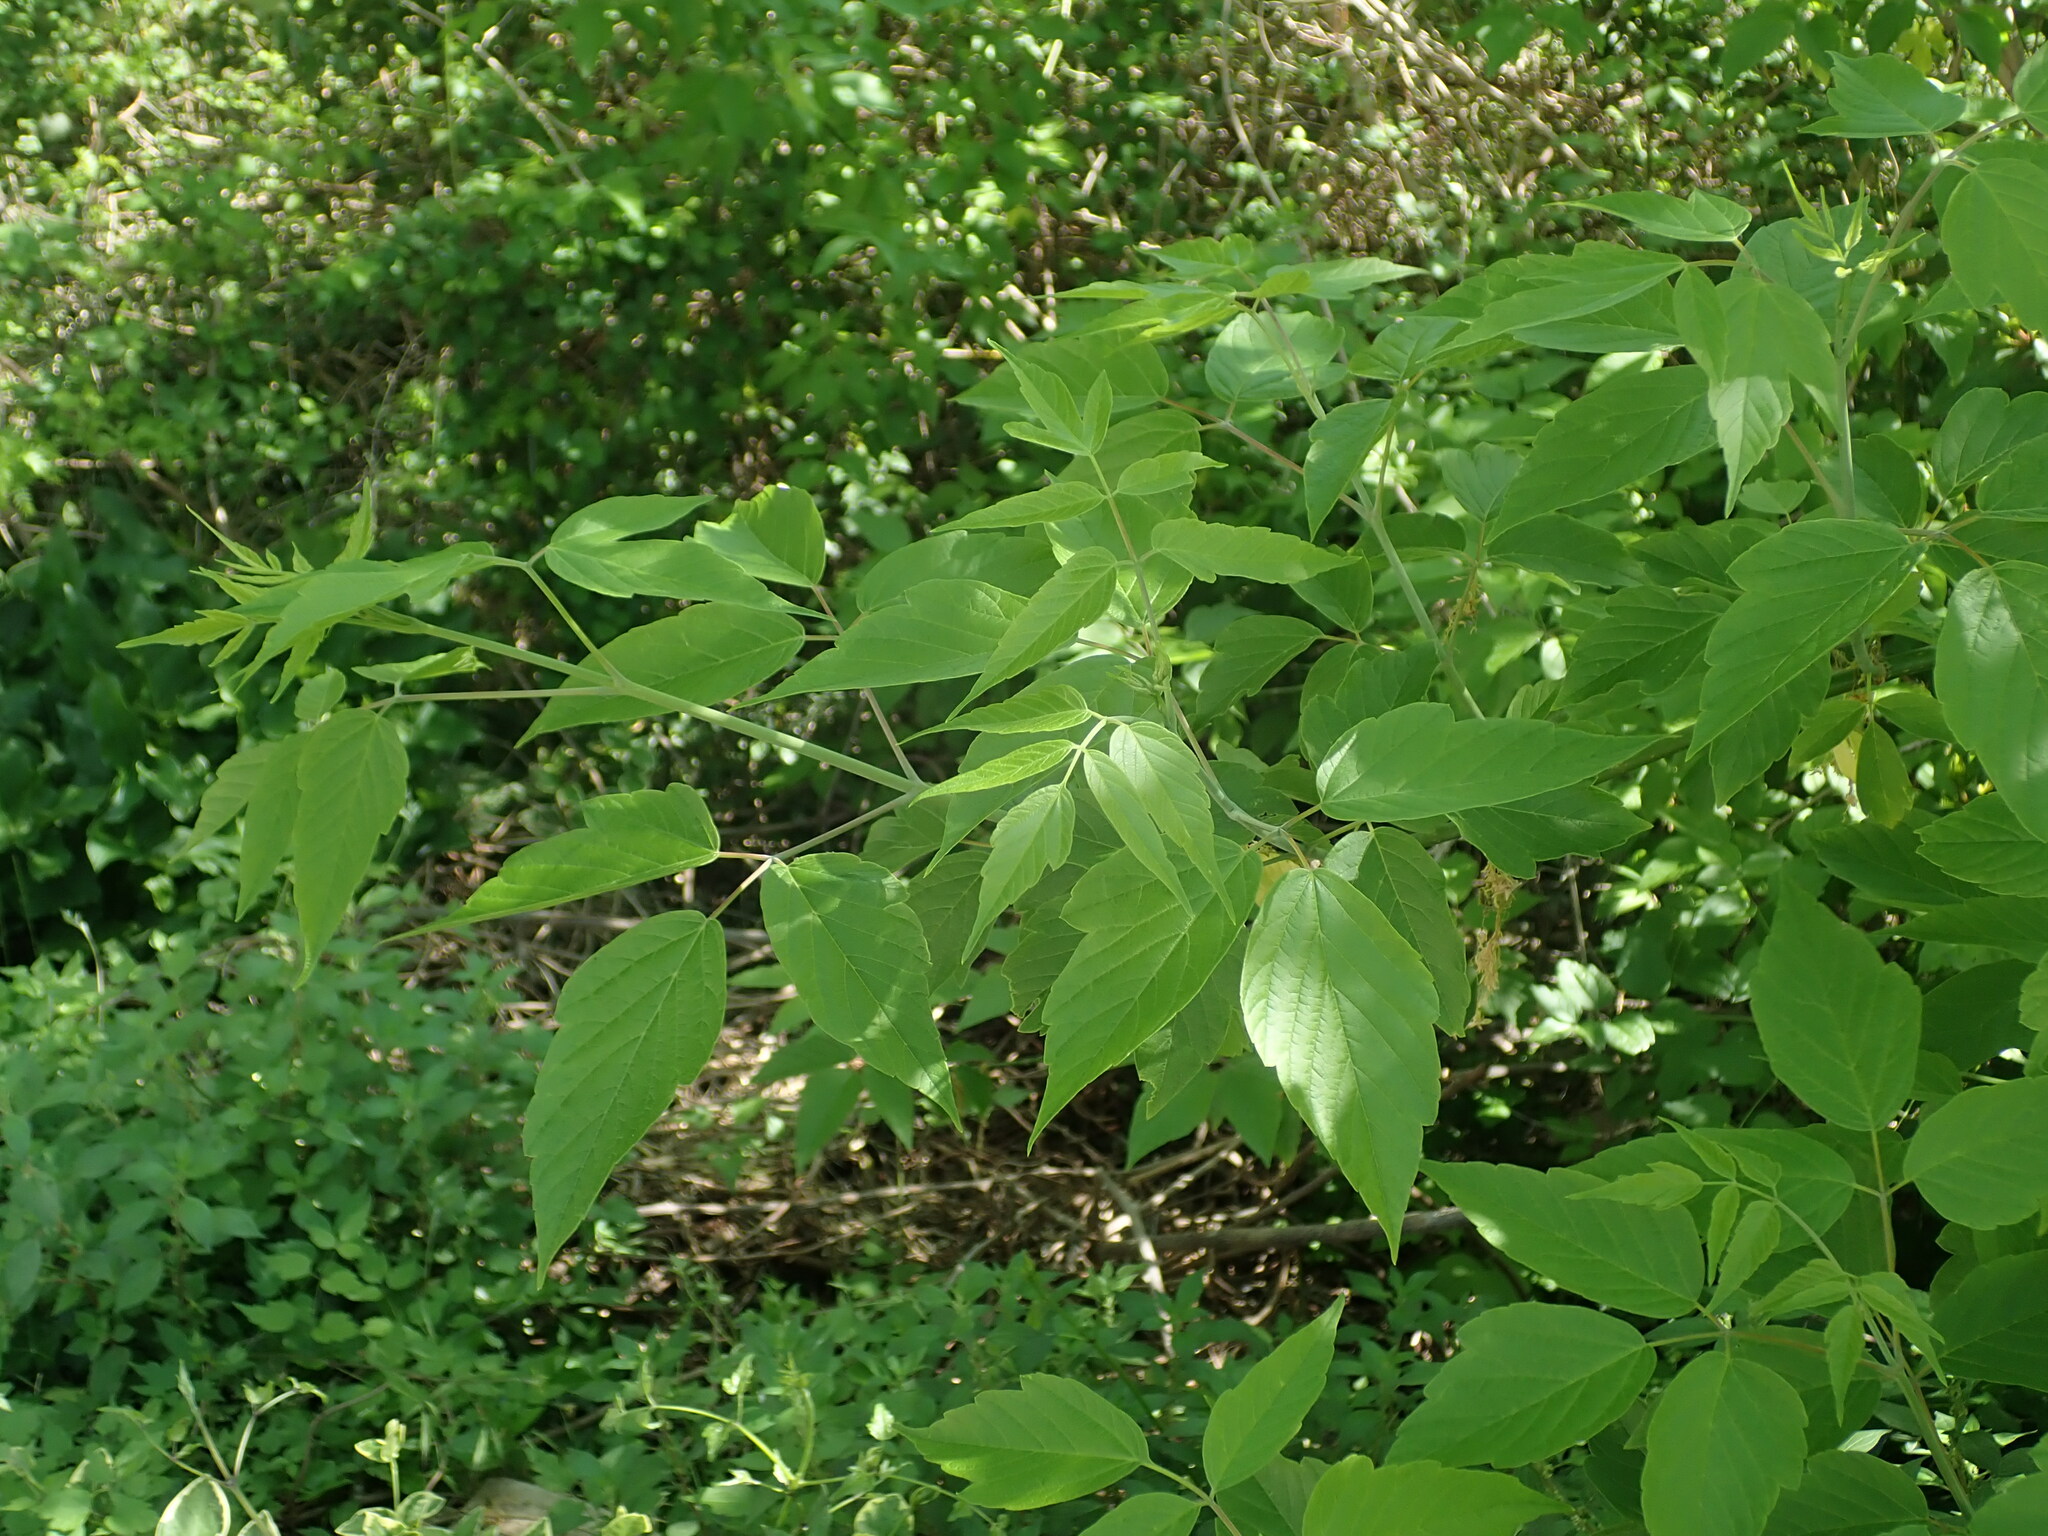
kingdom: Plantae
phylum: Tracheophyta
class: Magnoliopsida
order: Sapindales
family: Sapindaceae
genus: Acer
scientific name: Acer negundo
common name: Ashleaf maple
